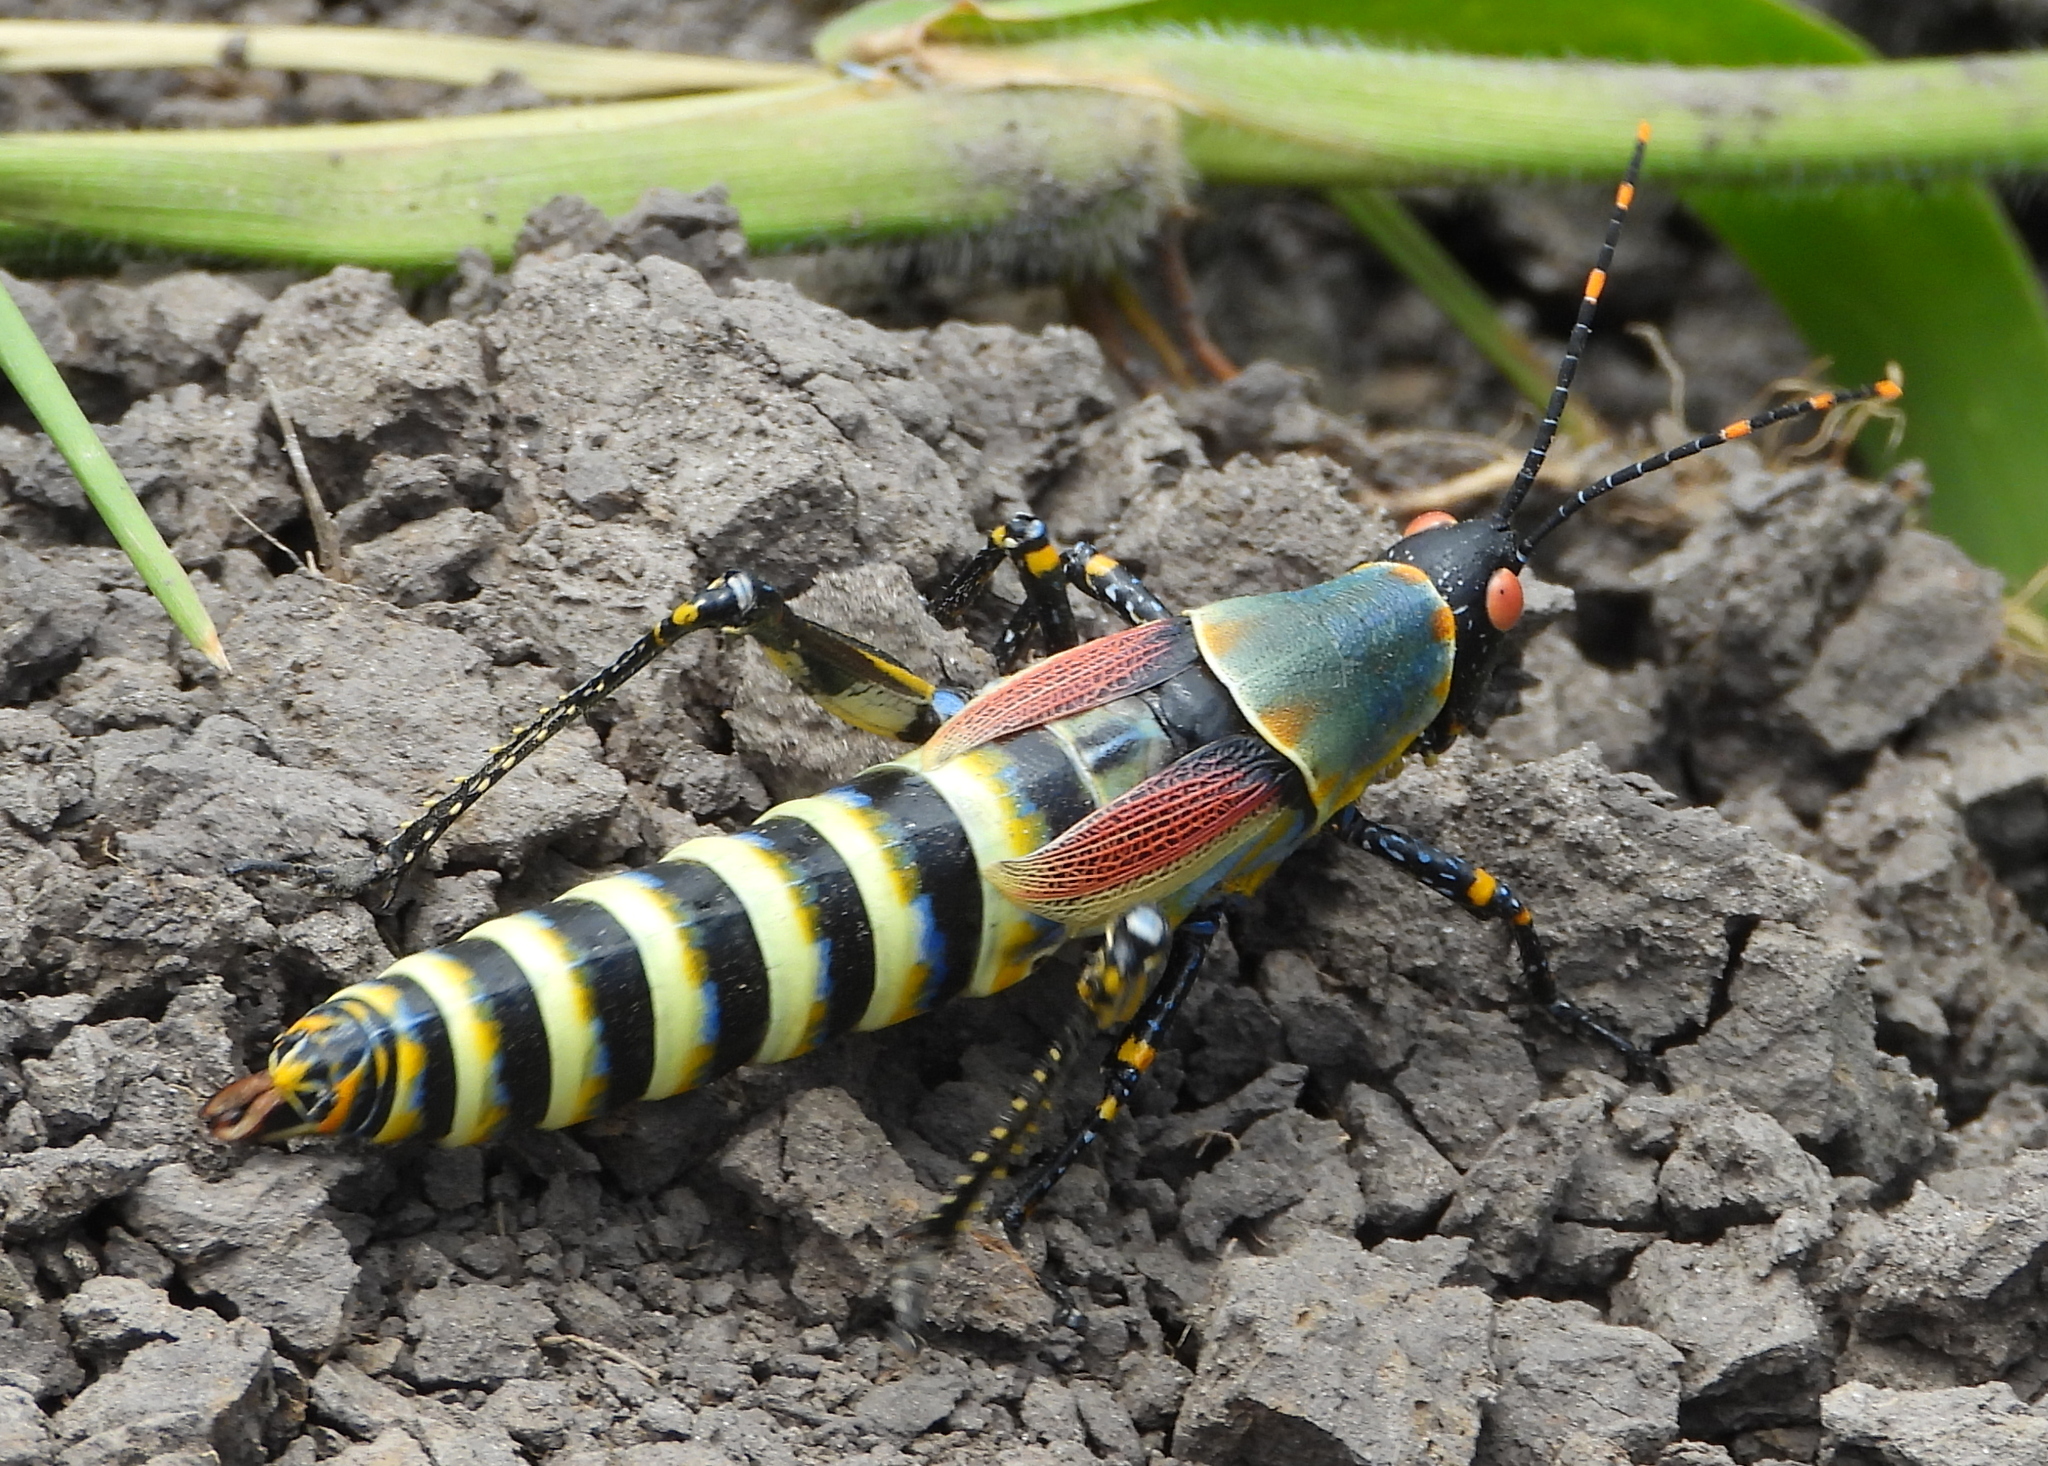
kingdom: Animalia
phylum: Arthropoda
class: Insecta
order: Orthoptera
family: Pyrgomorphidae
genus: Zonocerus
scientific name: Zonocerus elegans
